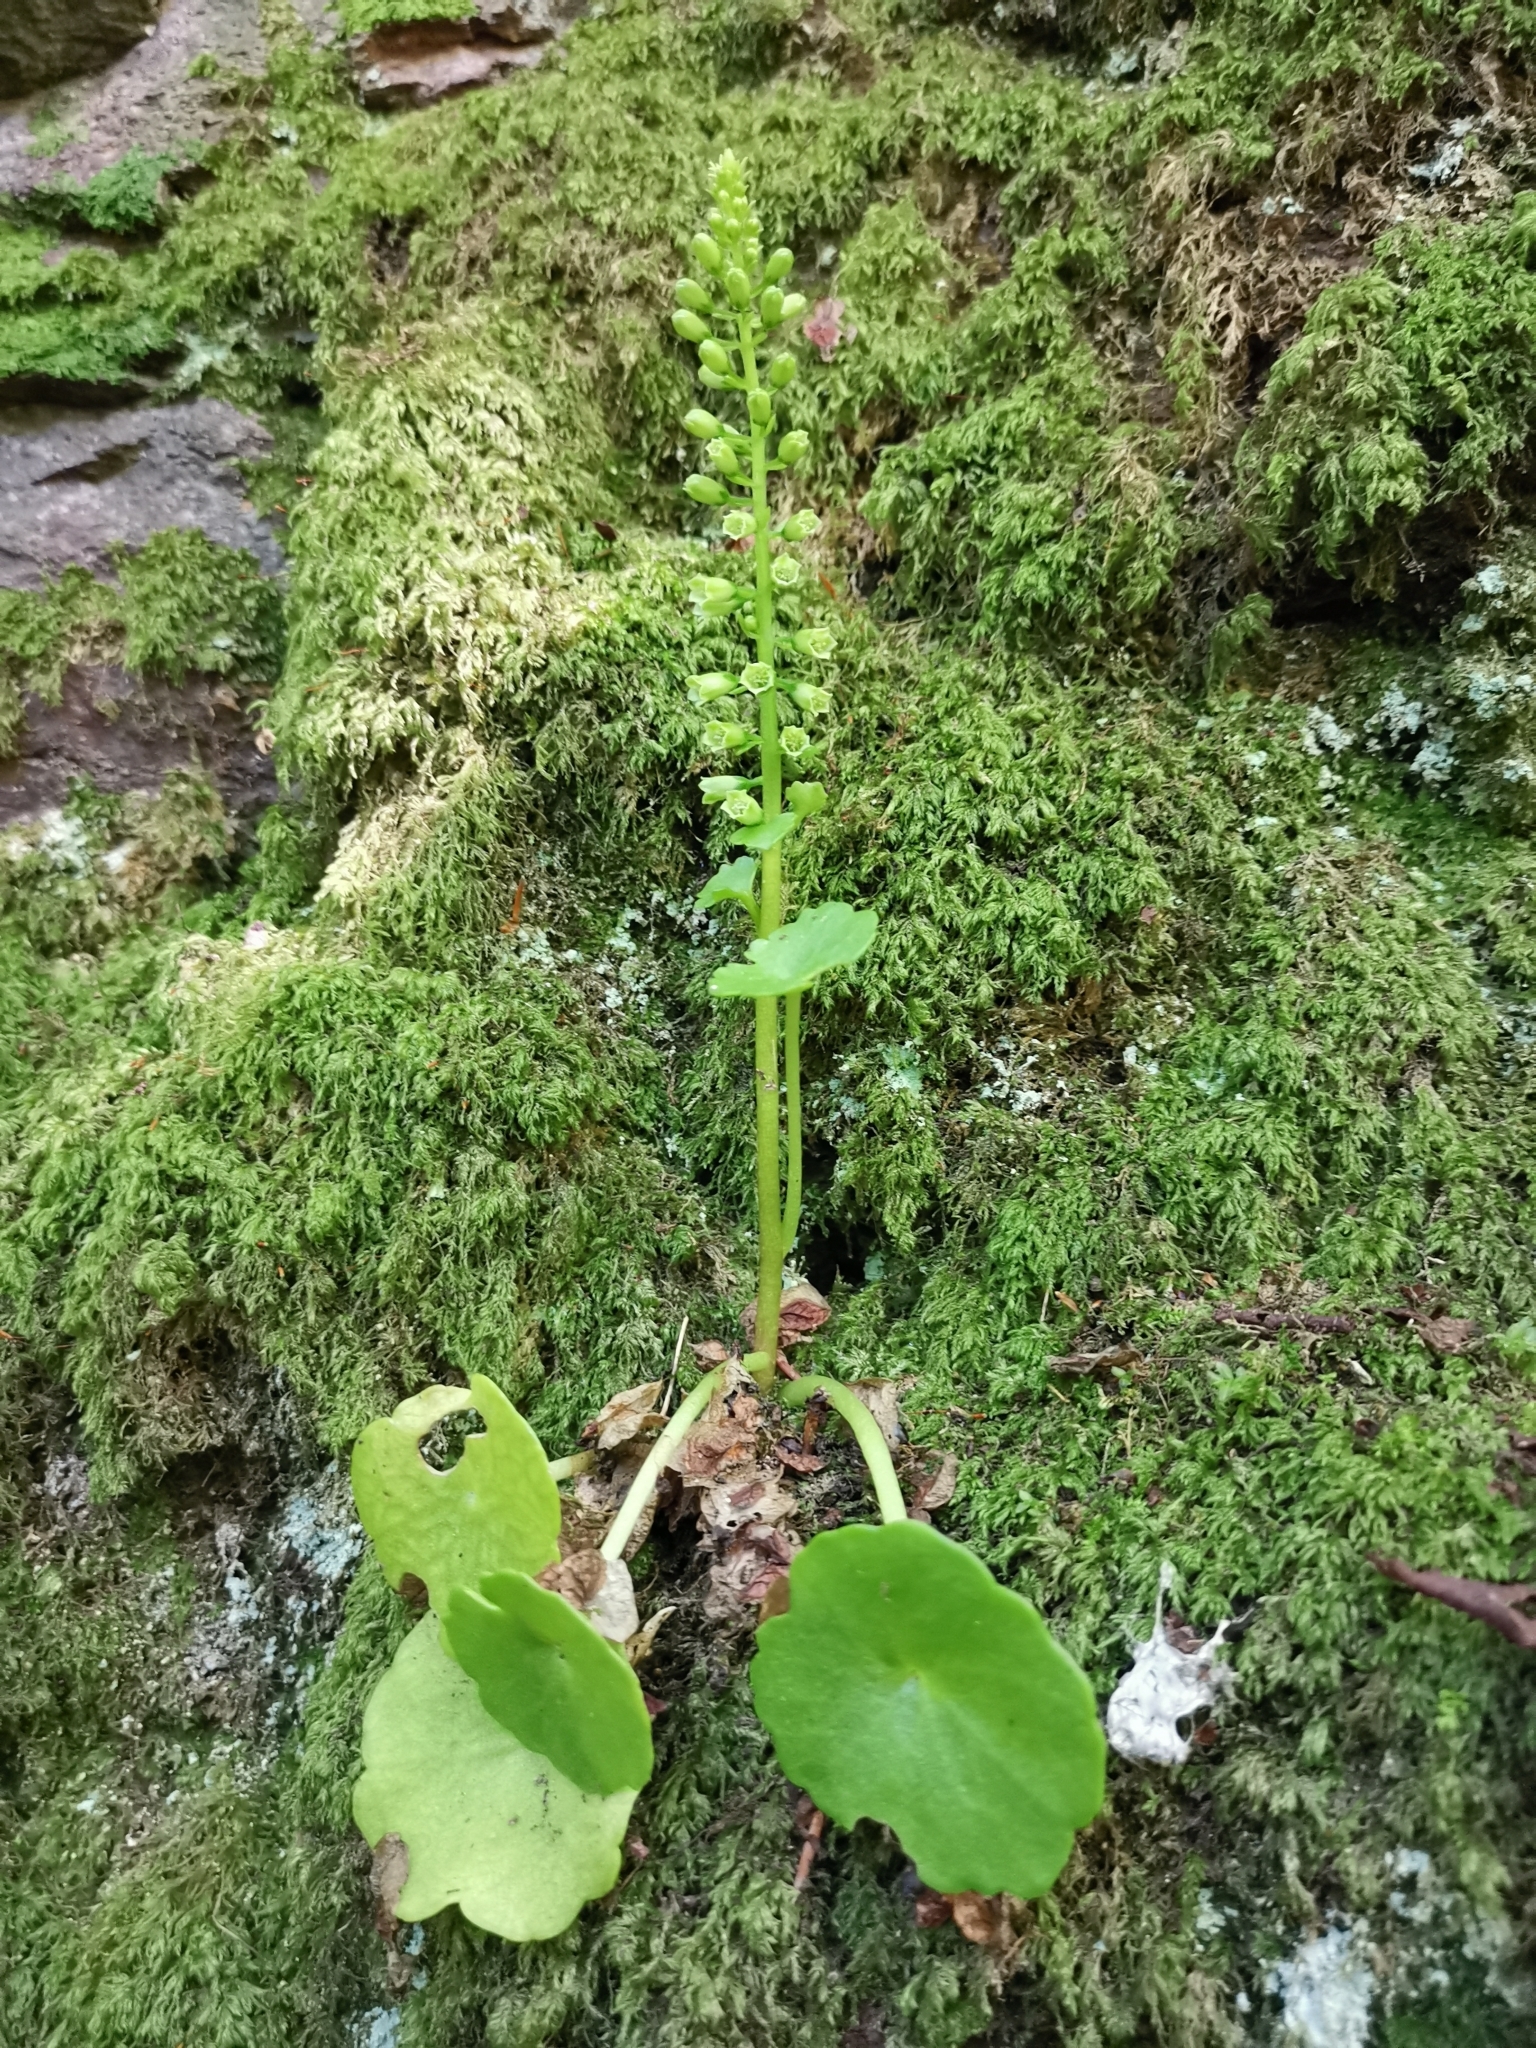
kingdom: Plantae
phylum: Tracheophyta
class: Magnoliopsida
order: Saxifragales
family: Crassulaceae
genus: Umbilicus
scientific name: Umbilicus rupestris
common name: Navelwort
